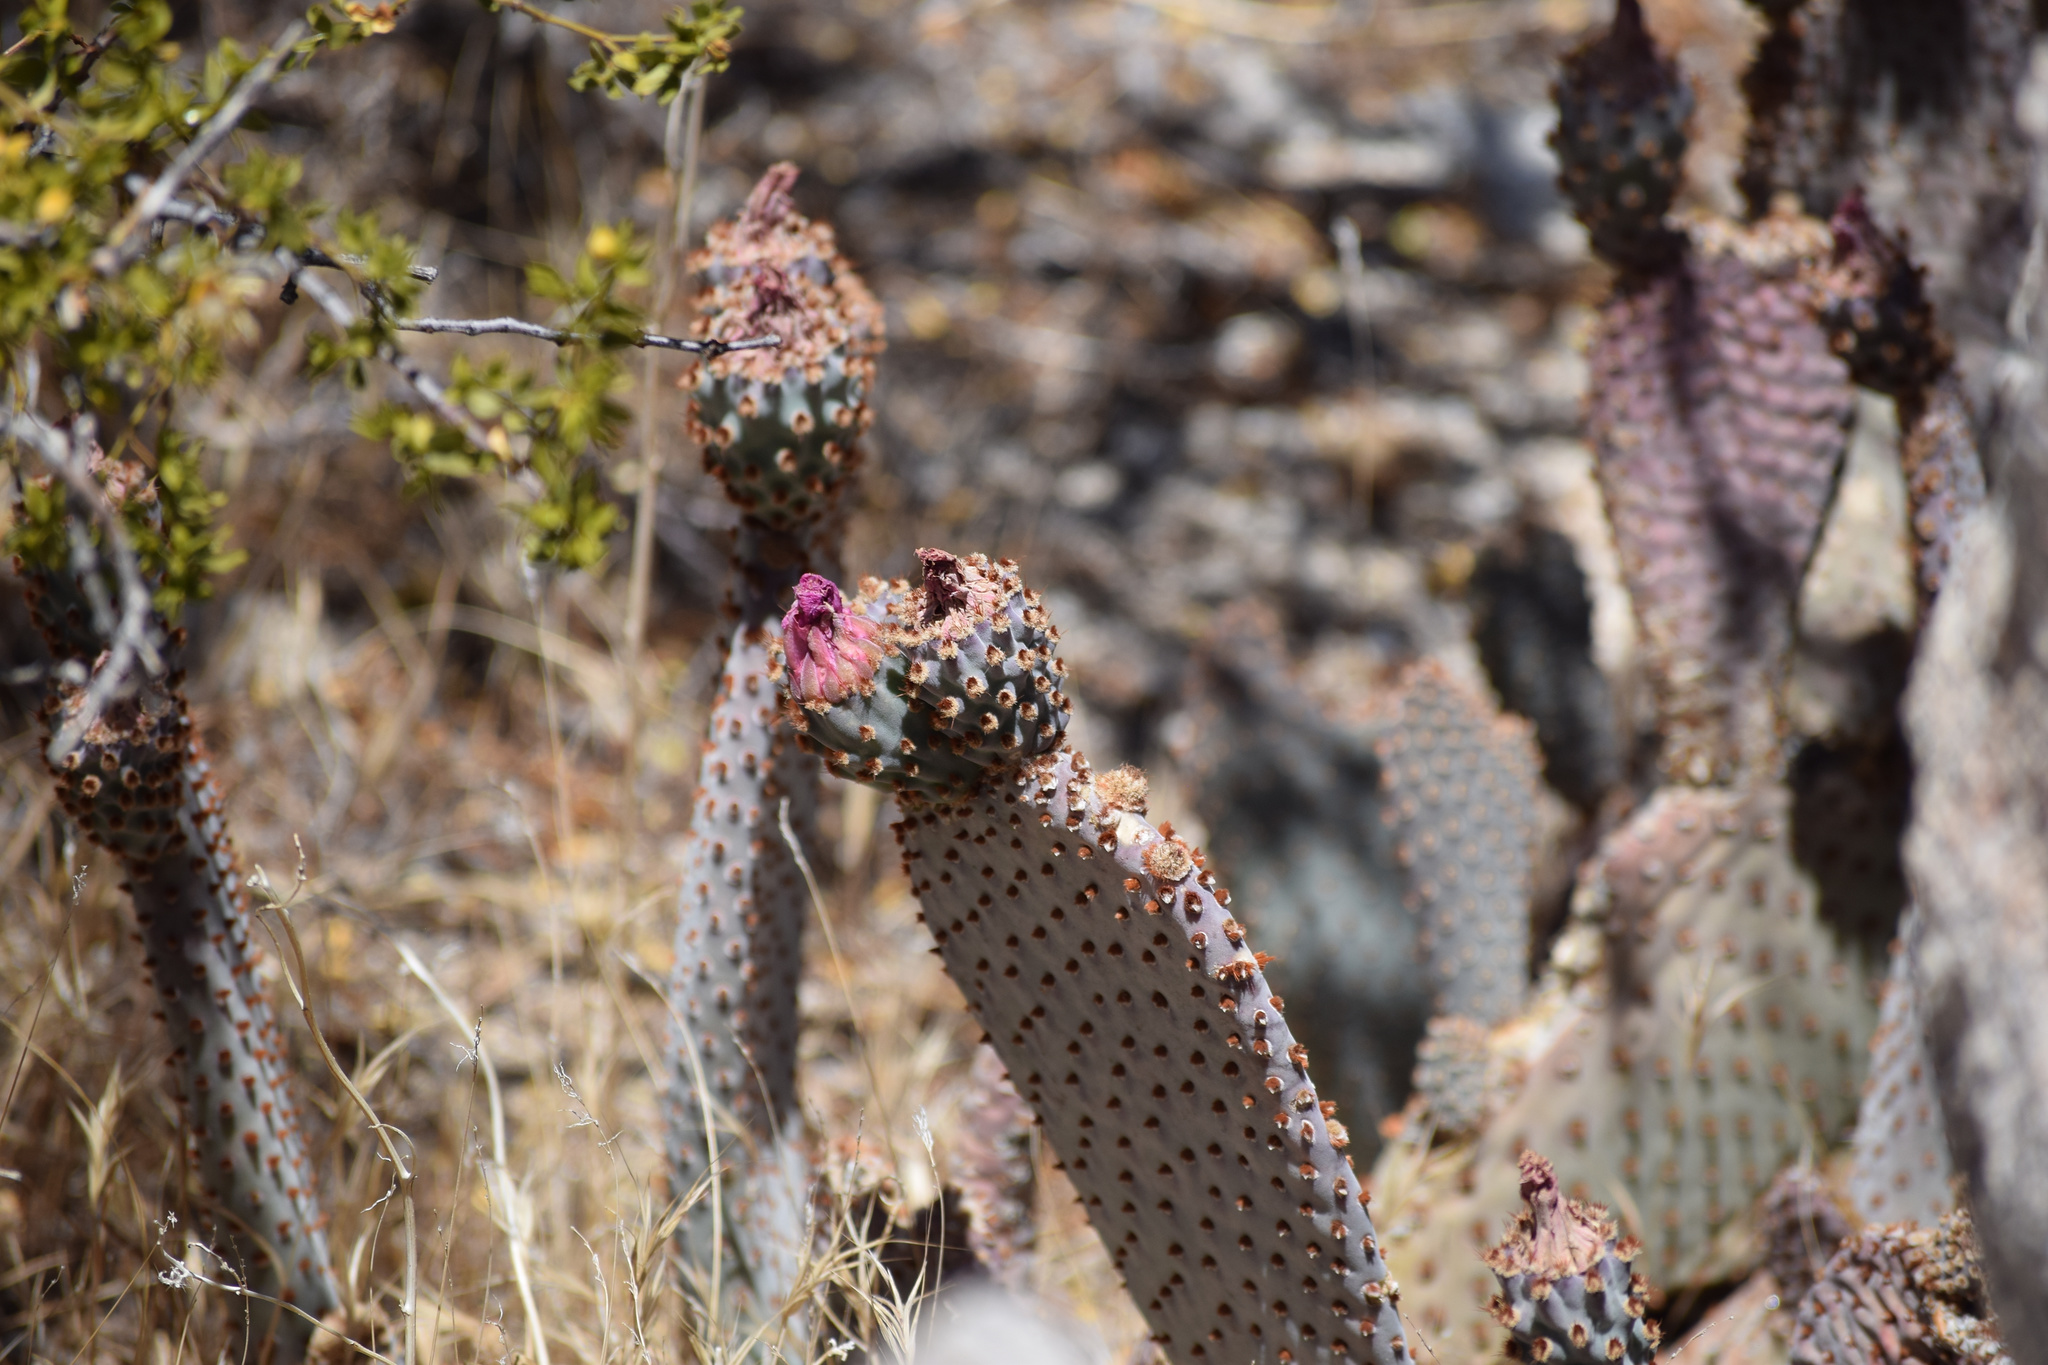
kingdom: Plantae
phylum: Tracheophyta
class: Magnoliopsida
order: Caryophyllales
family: Cactaceae
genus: Opuntia
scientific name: Opuntia basilaris
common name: Beavertail prickly-pear
